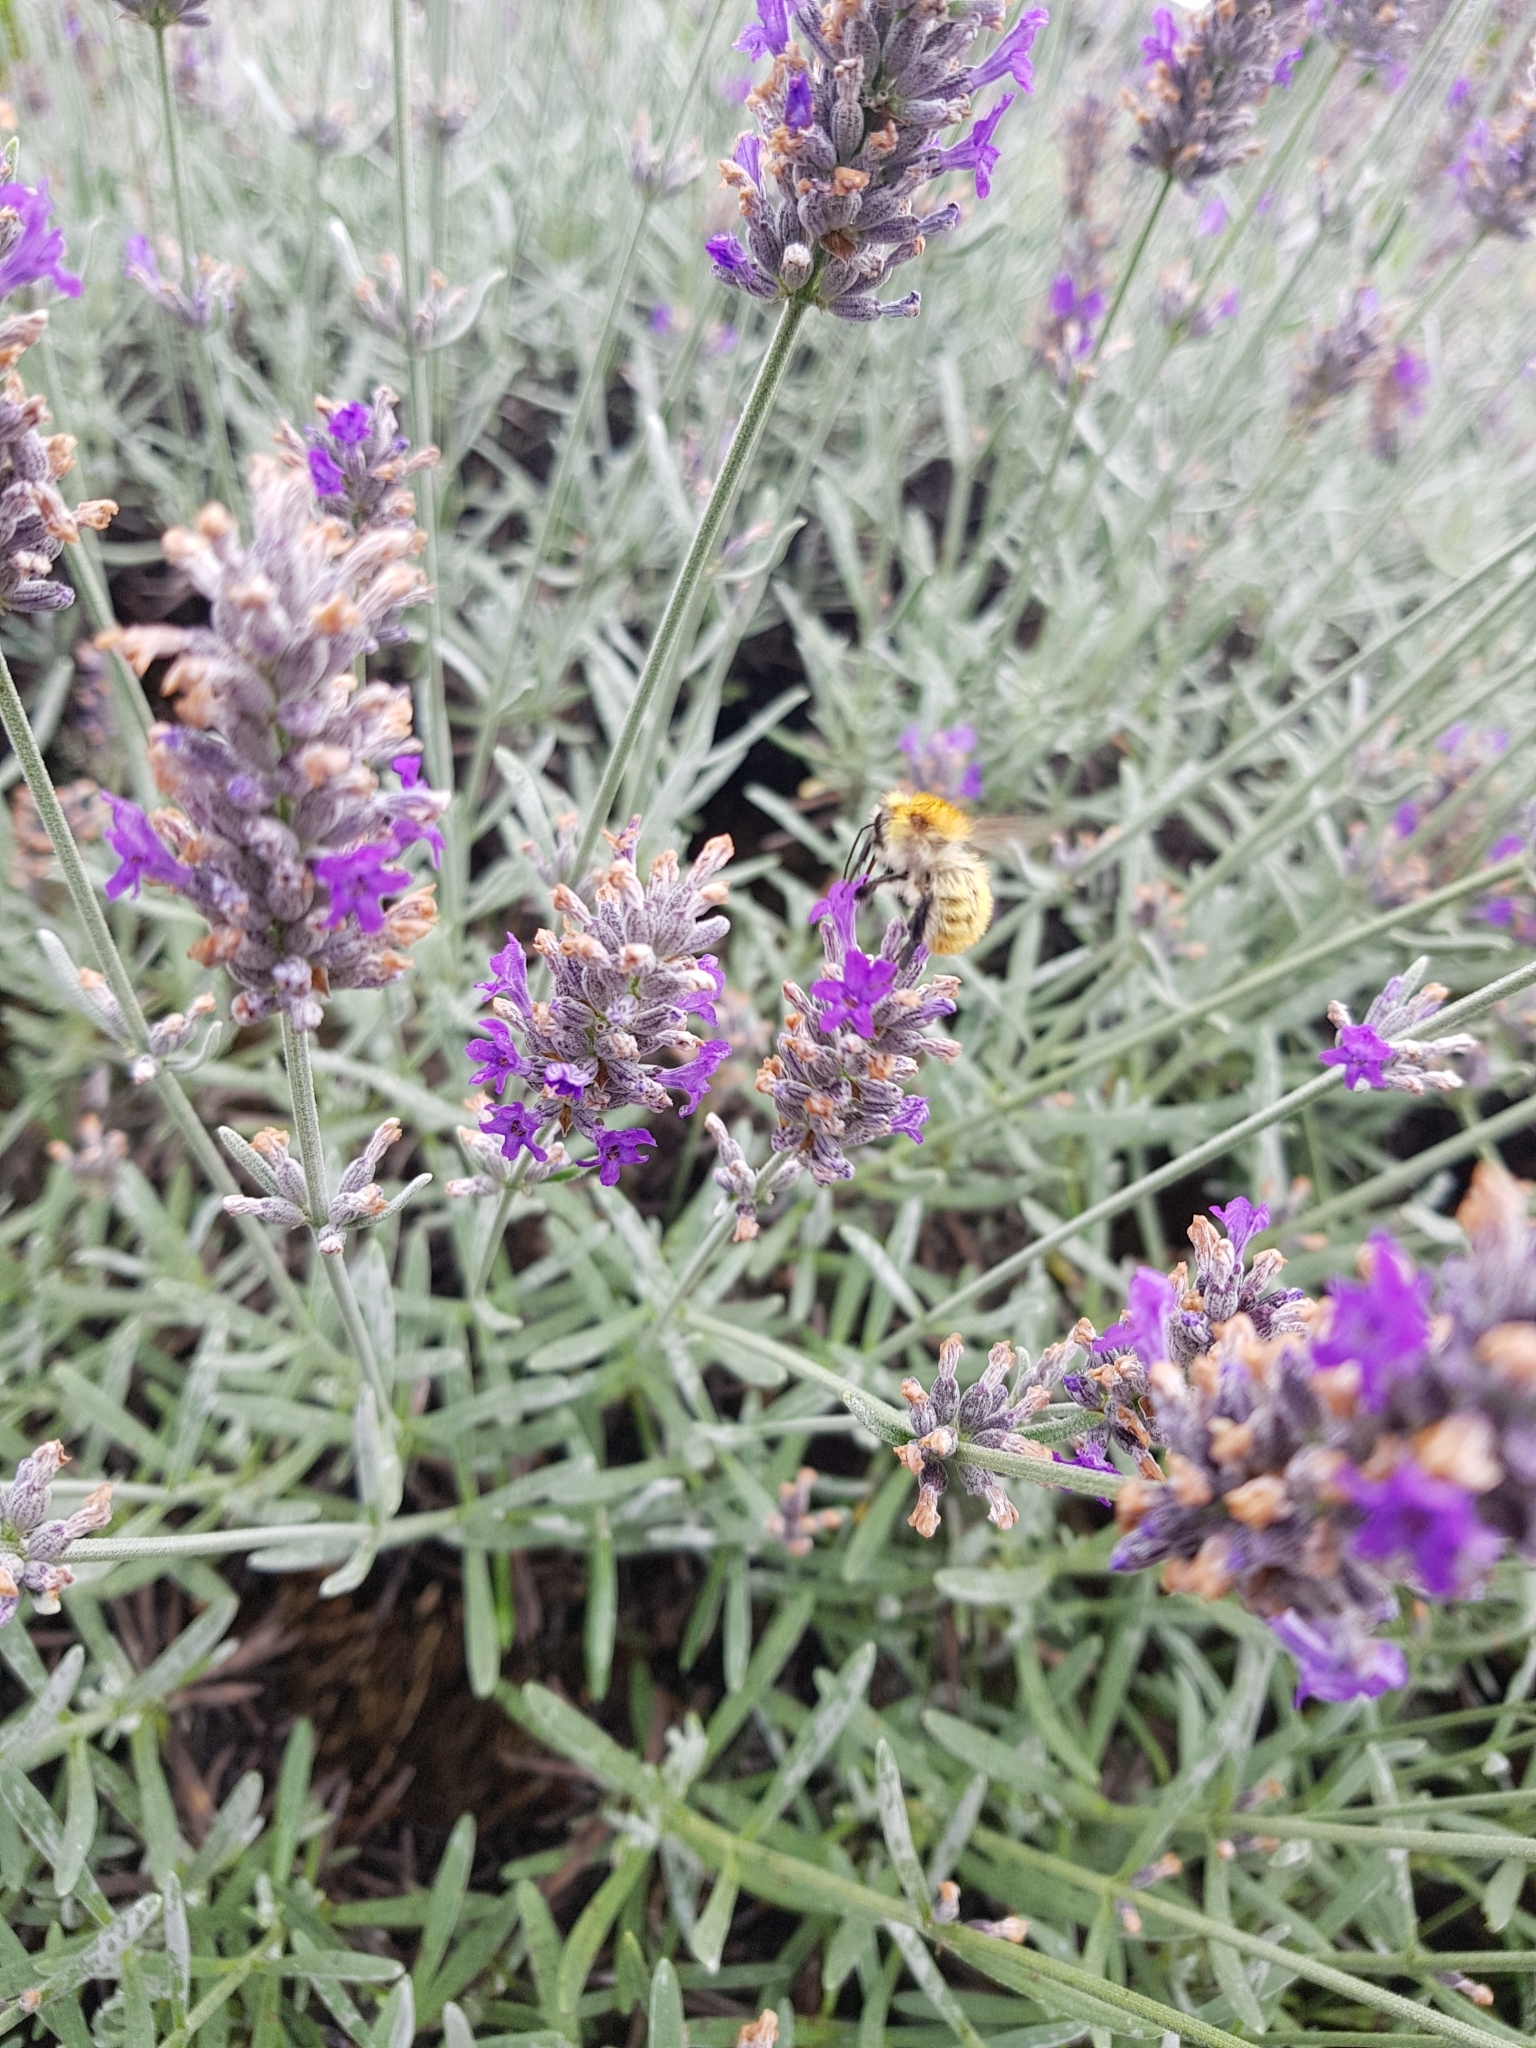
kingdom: Animalia
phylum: Arthropoda
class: Insecta
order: Hymenoptera
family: Apidae
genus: Bombus
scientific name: Bombus pascuorum
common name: Common carder bee
